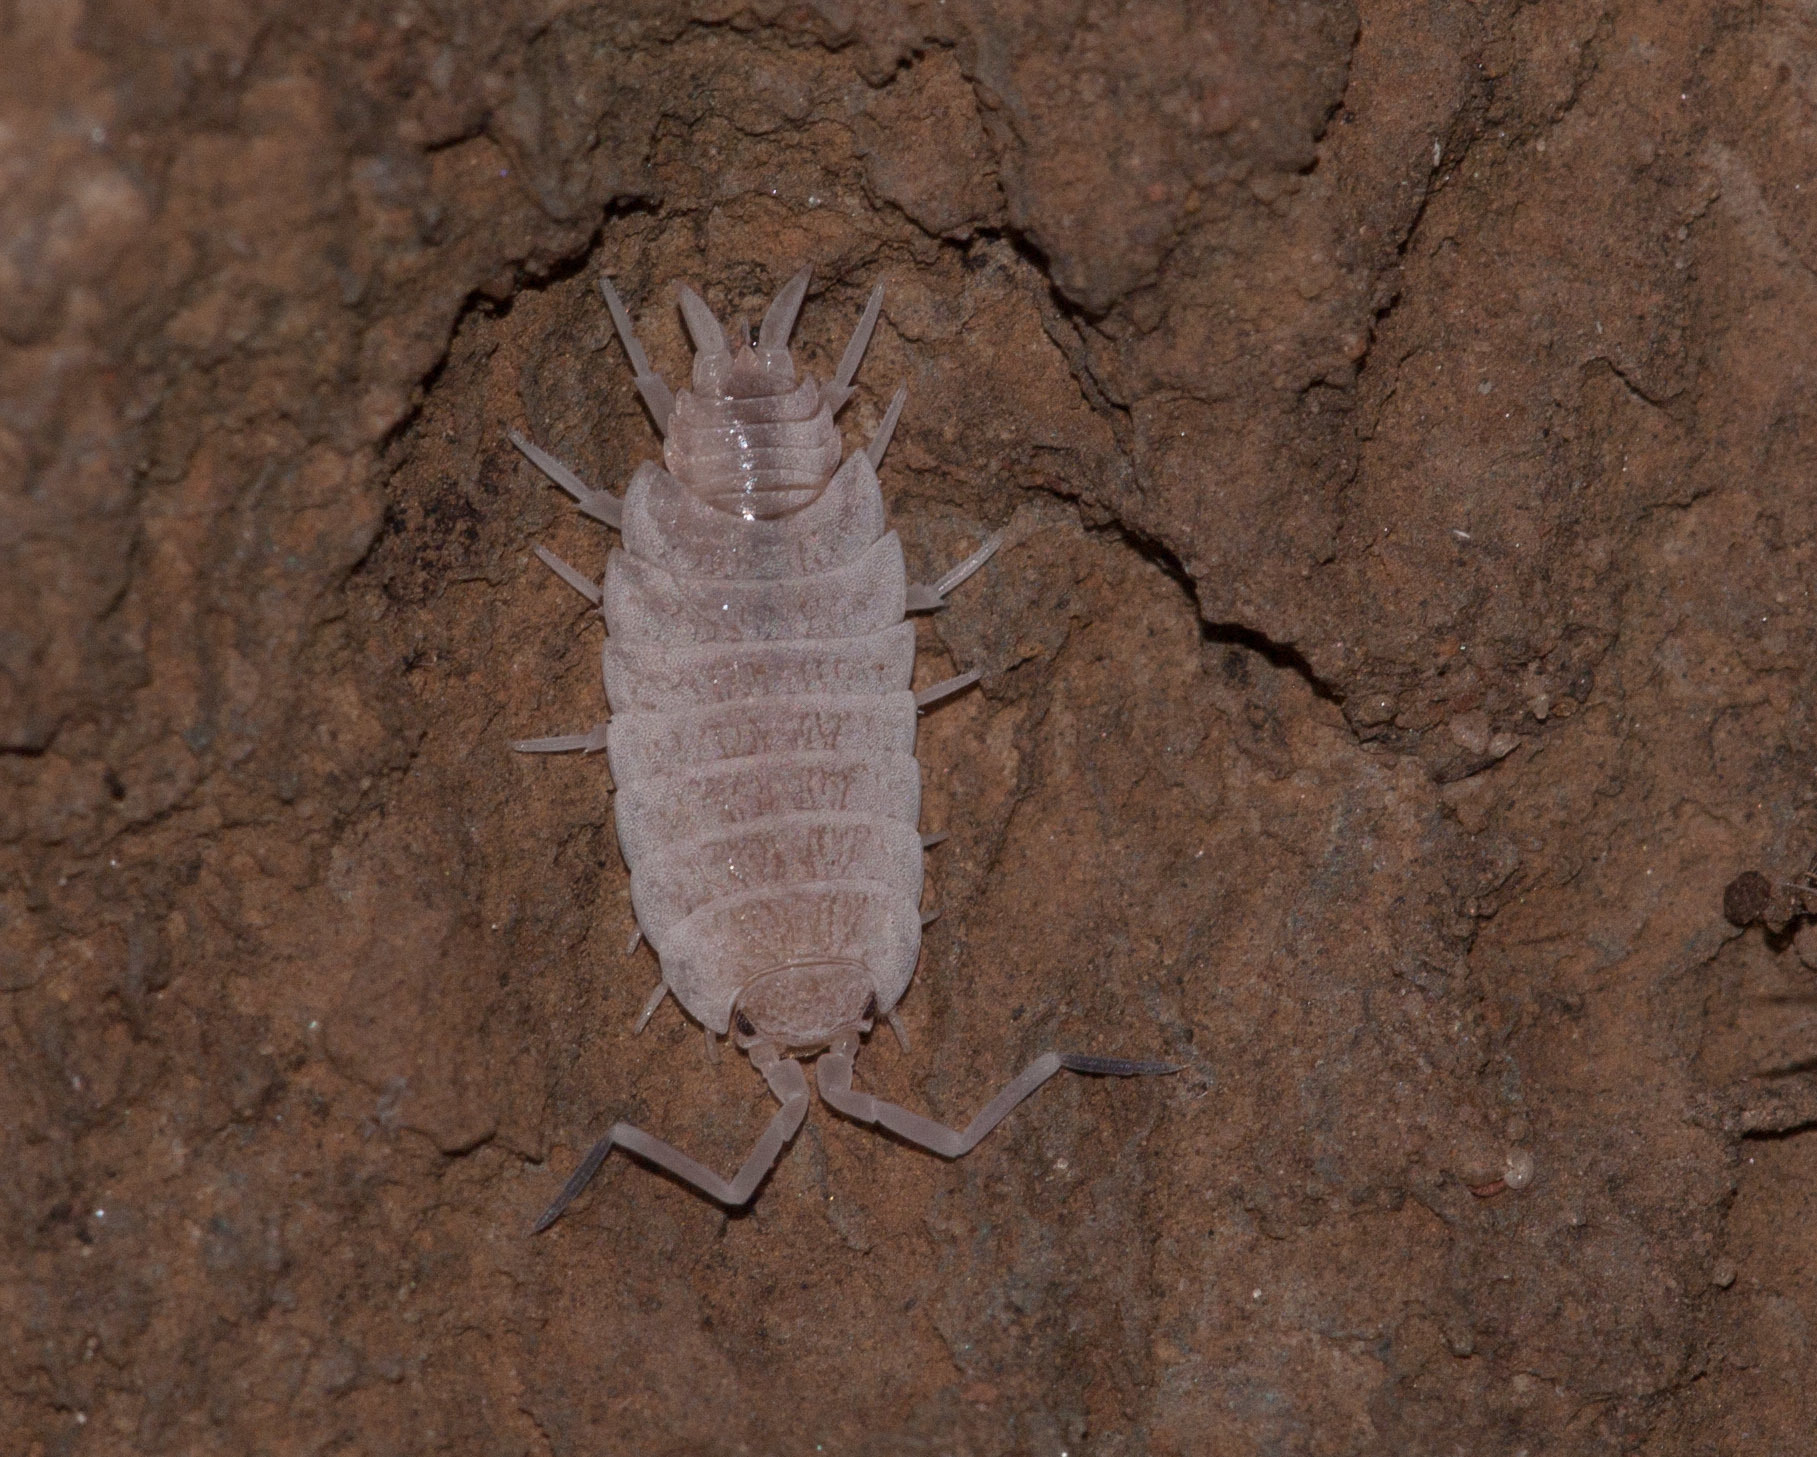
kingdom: Animalia
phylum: Arthropoda
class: Malacostraca
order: Isopoda
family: Porcellionidae
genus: Porcellionides
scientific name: Porcellionides pruinosus
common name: Plum woodlouse
